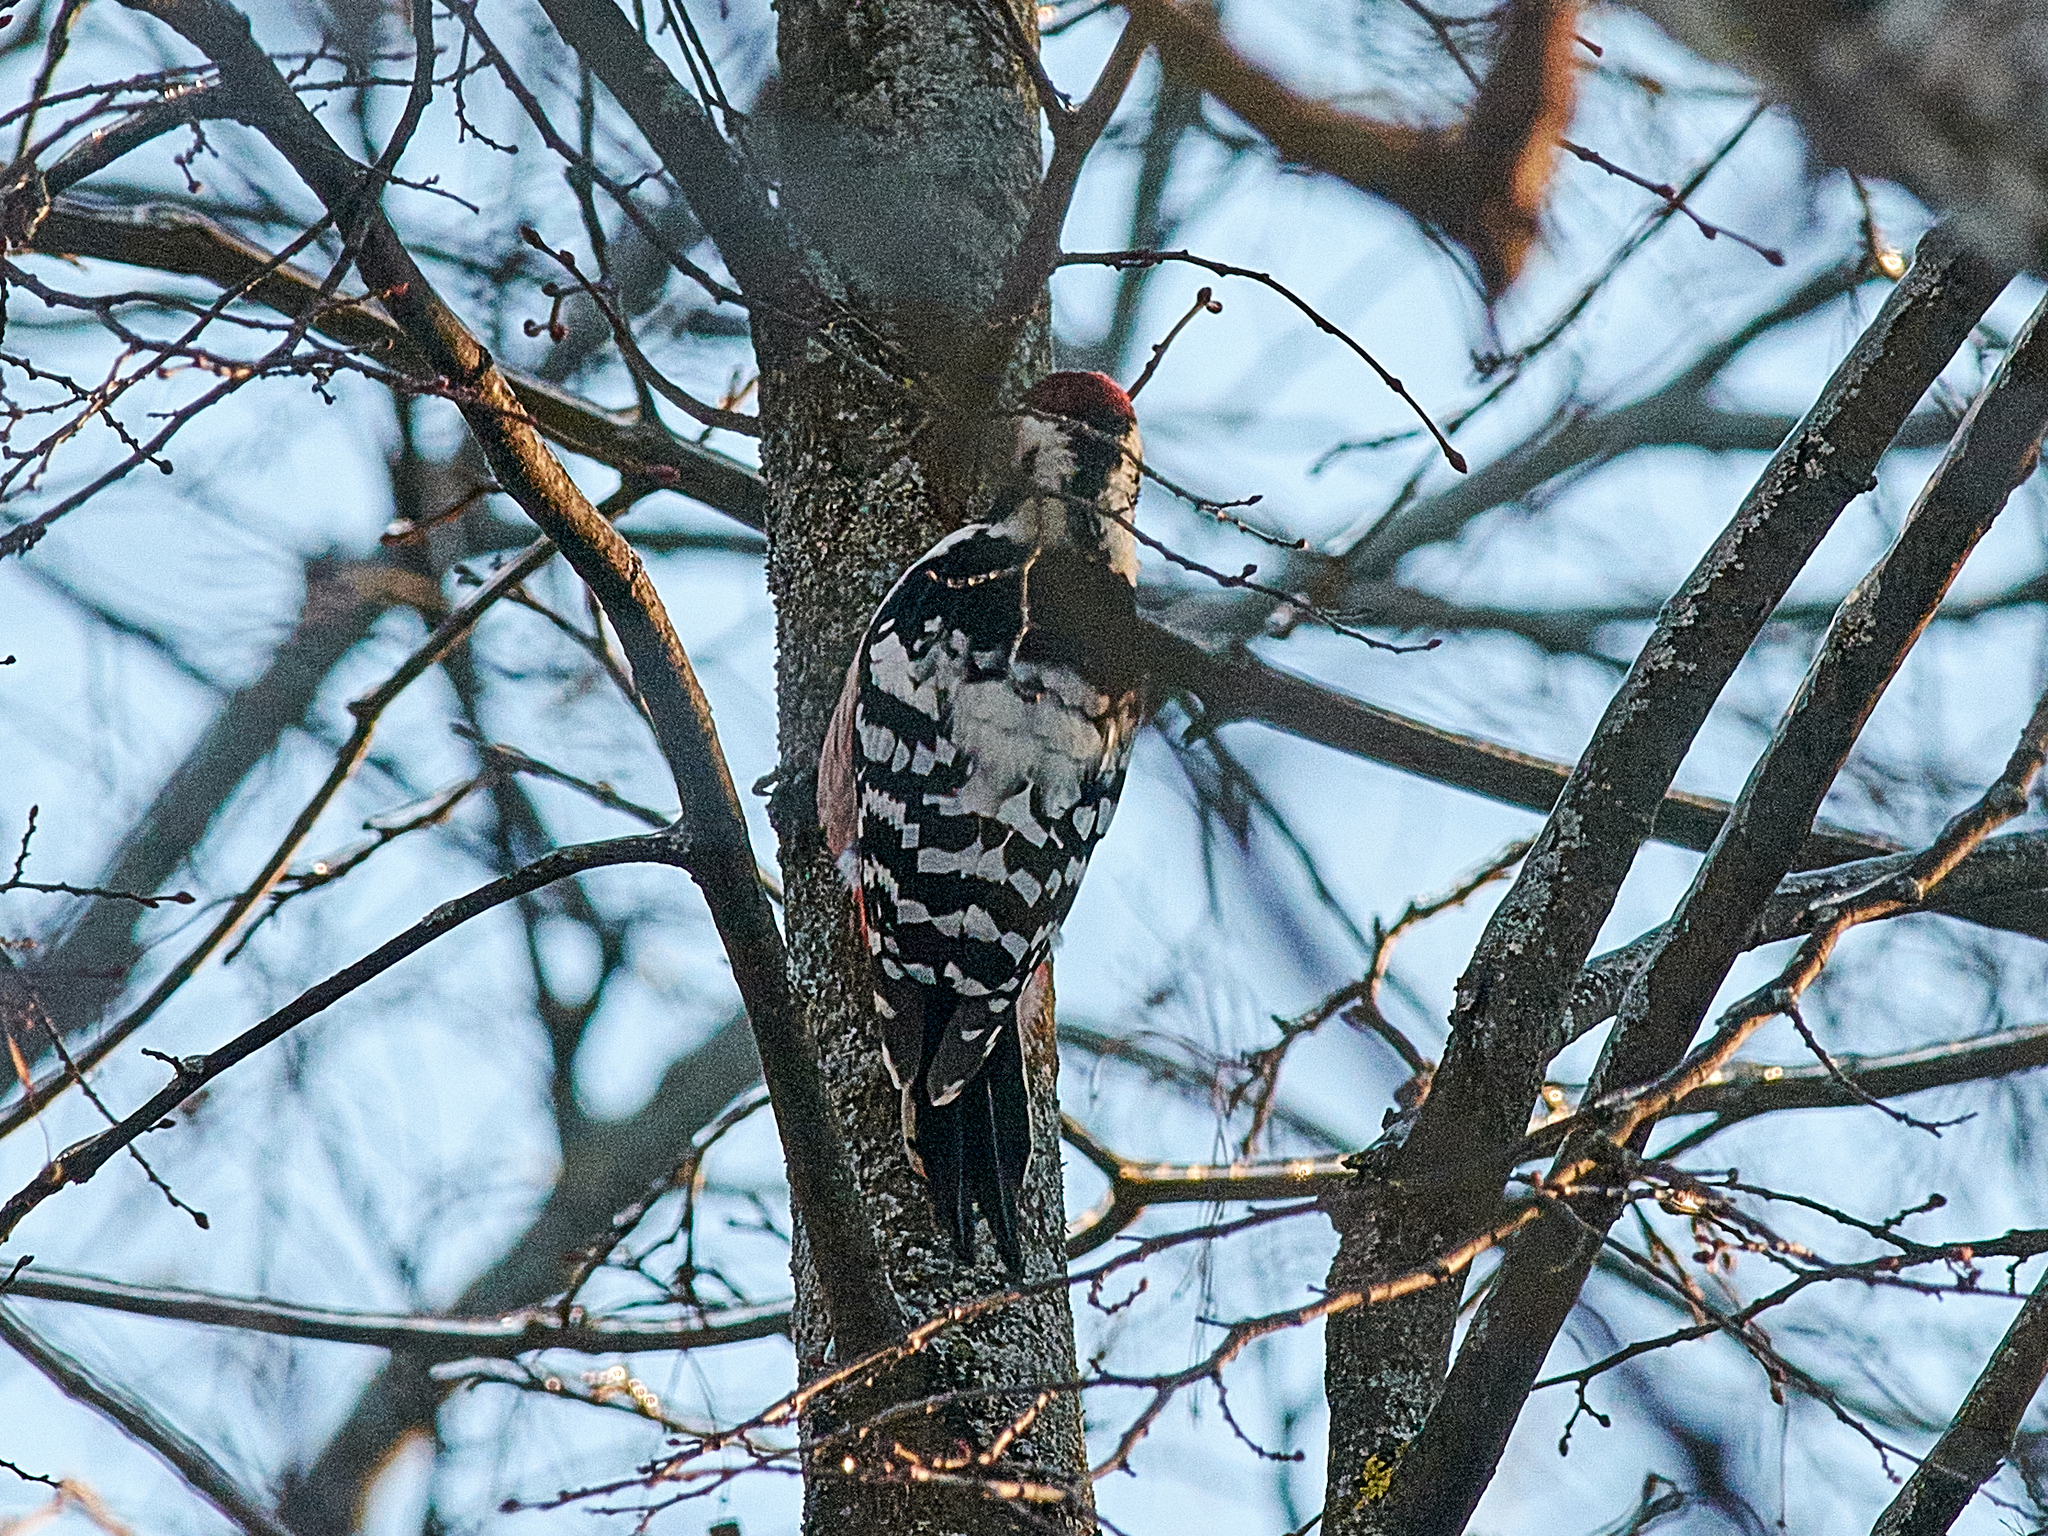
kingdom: Animalia
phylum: Chordata
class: Aves
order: Piciformes
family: Picidae
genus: Dendrocopos
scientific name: Dendrocopos leucotos
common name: White-backed woodpecker
